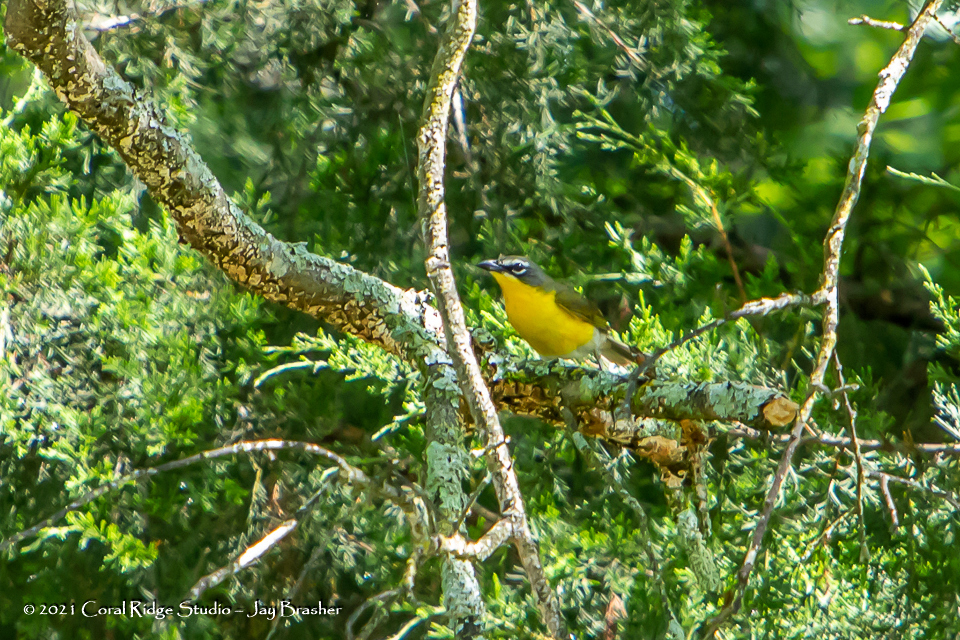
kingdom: Animalia
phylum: Chordata
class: Aves
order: Passeriformes
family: Parulidae
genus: Icteria
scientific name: Icteria virens
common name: Yellow-breasted chat
